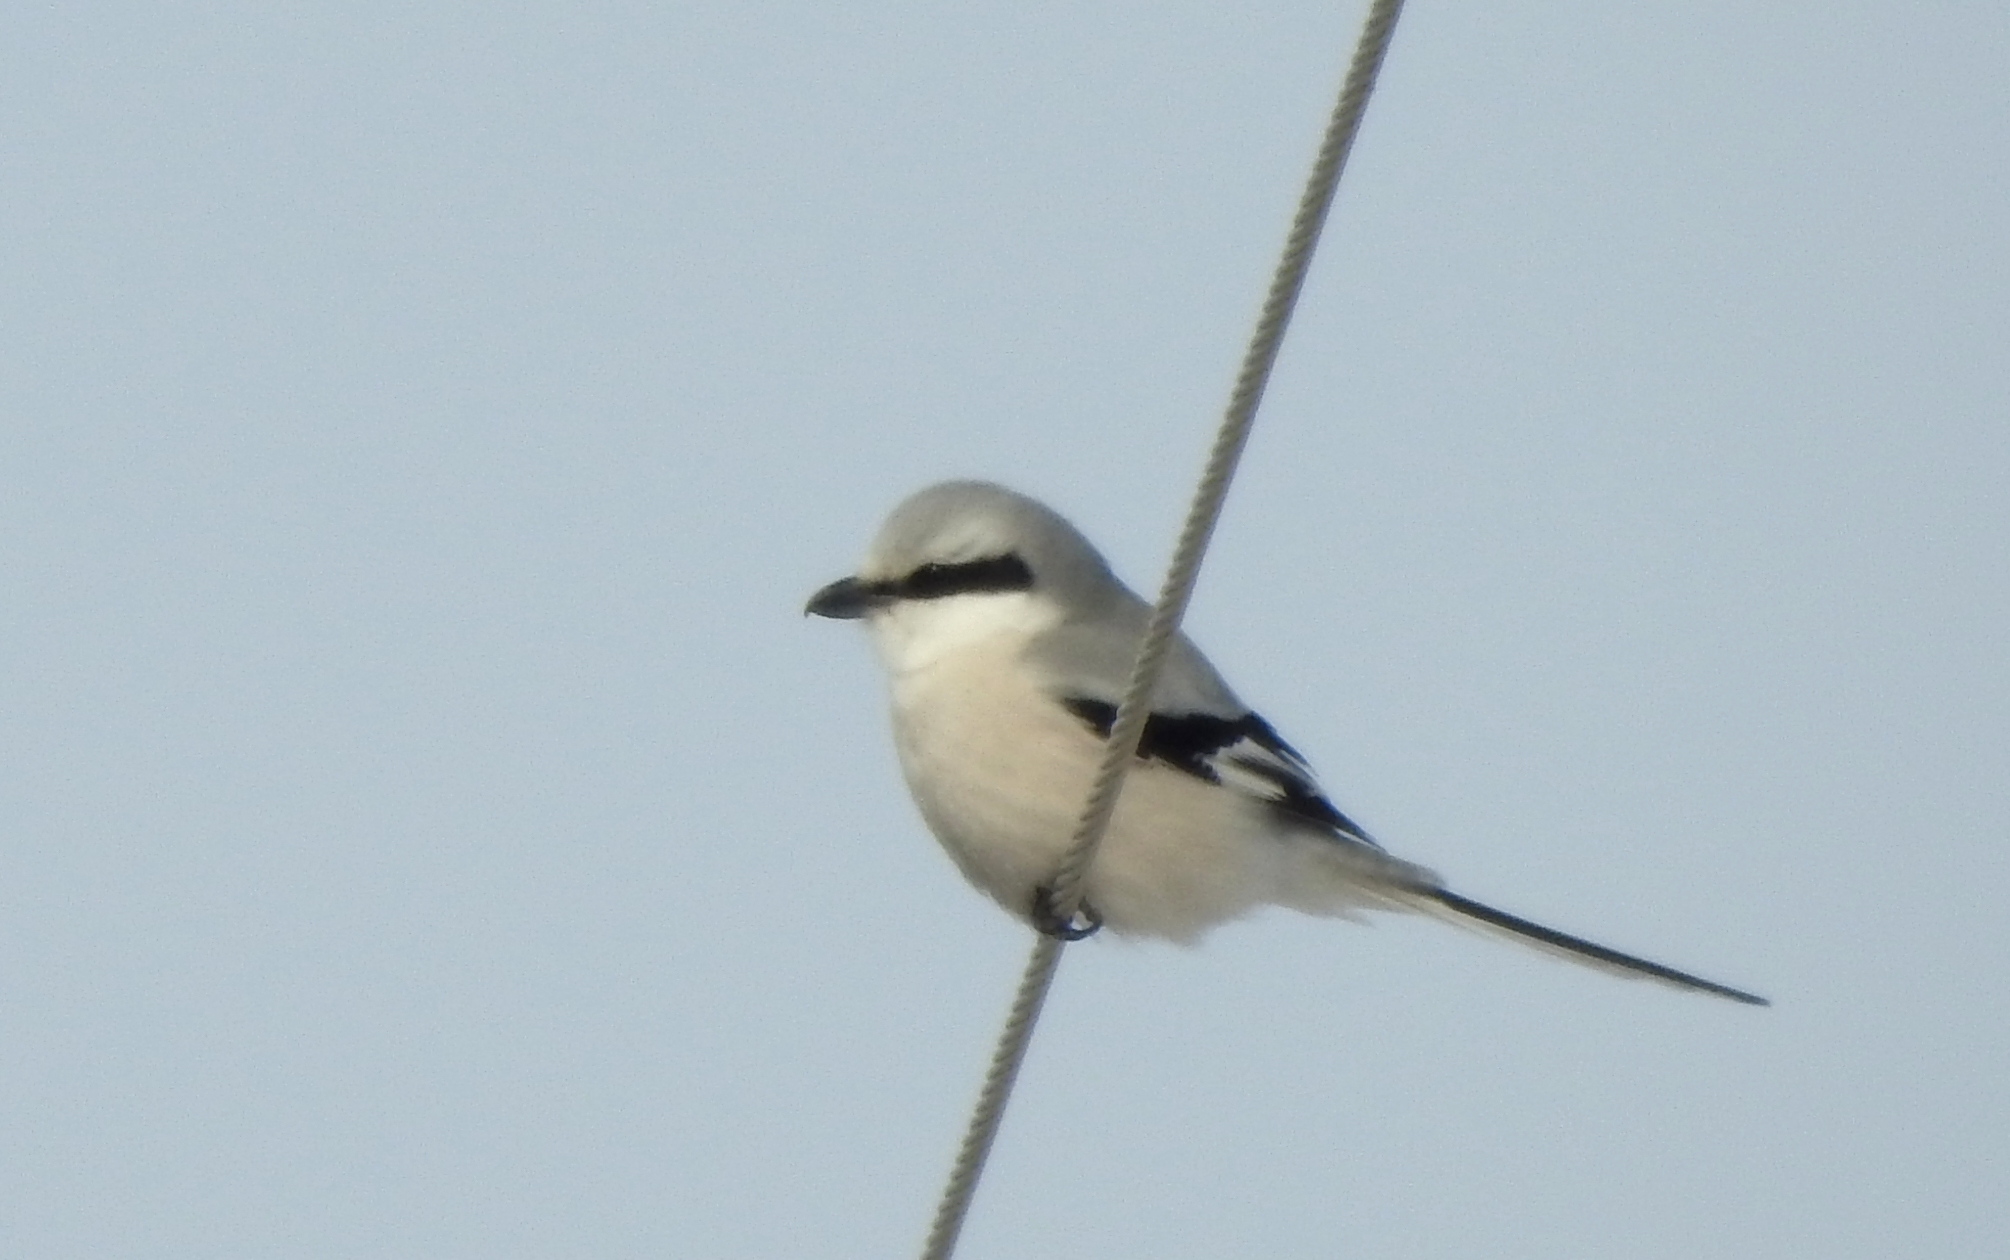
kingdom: Animalia
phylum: Chordata
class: Aves
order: Passeriformes
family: Laniidae
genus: Lanius
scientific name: Lanius sphenocercus
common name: Chinese grey shrike
